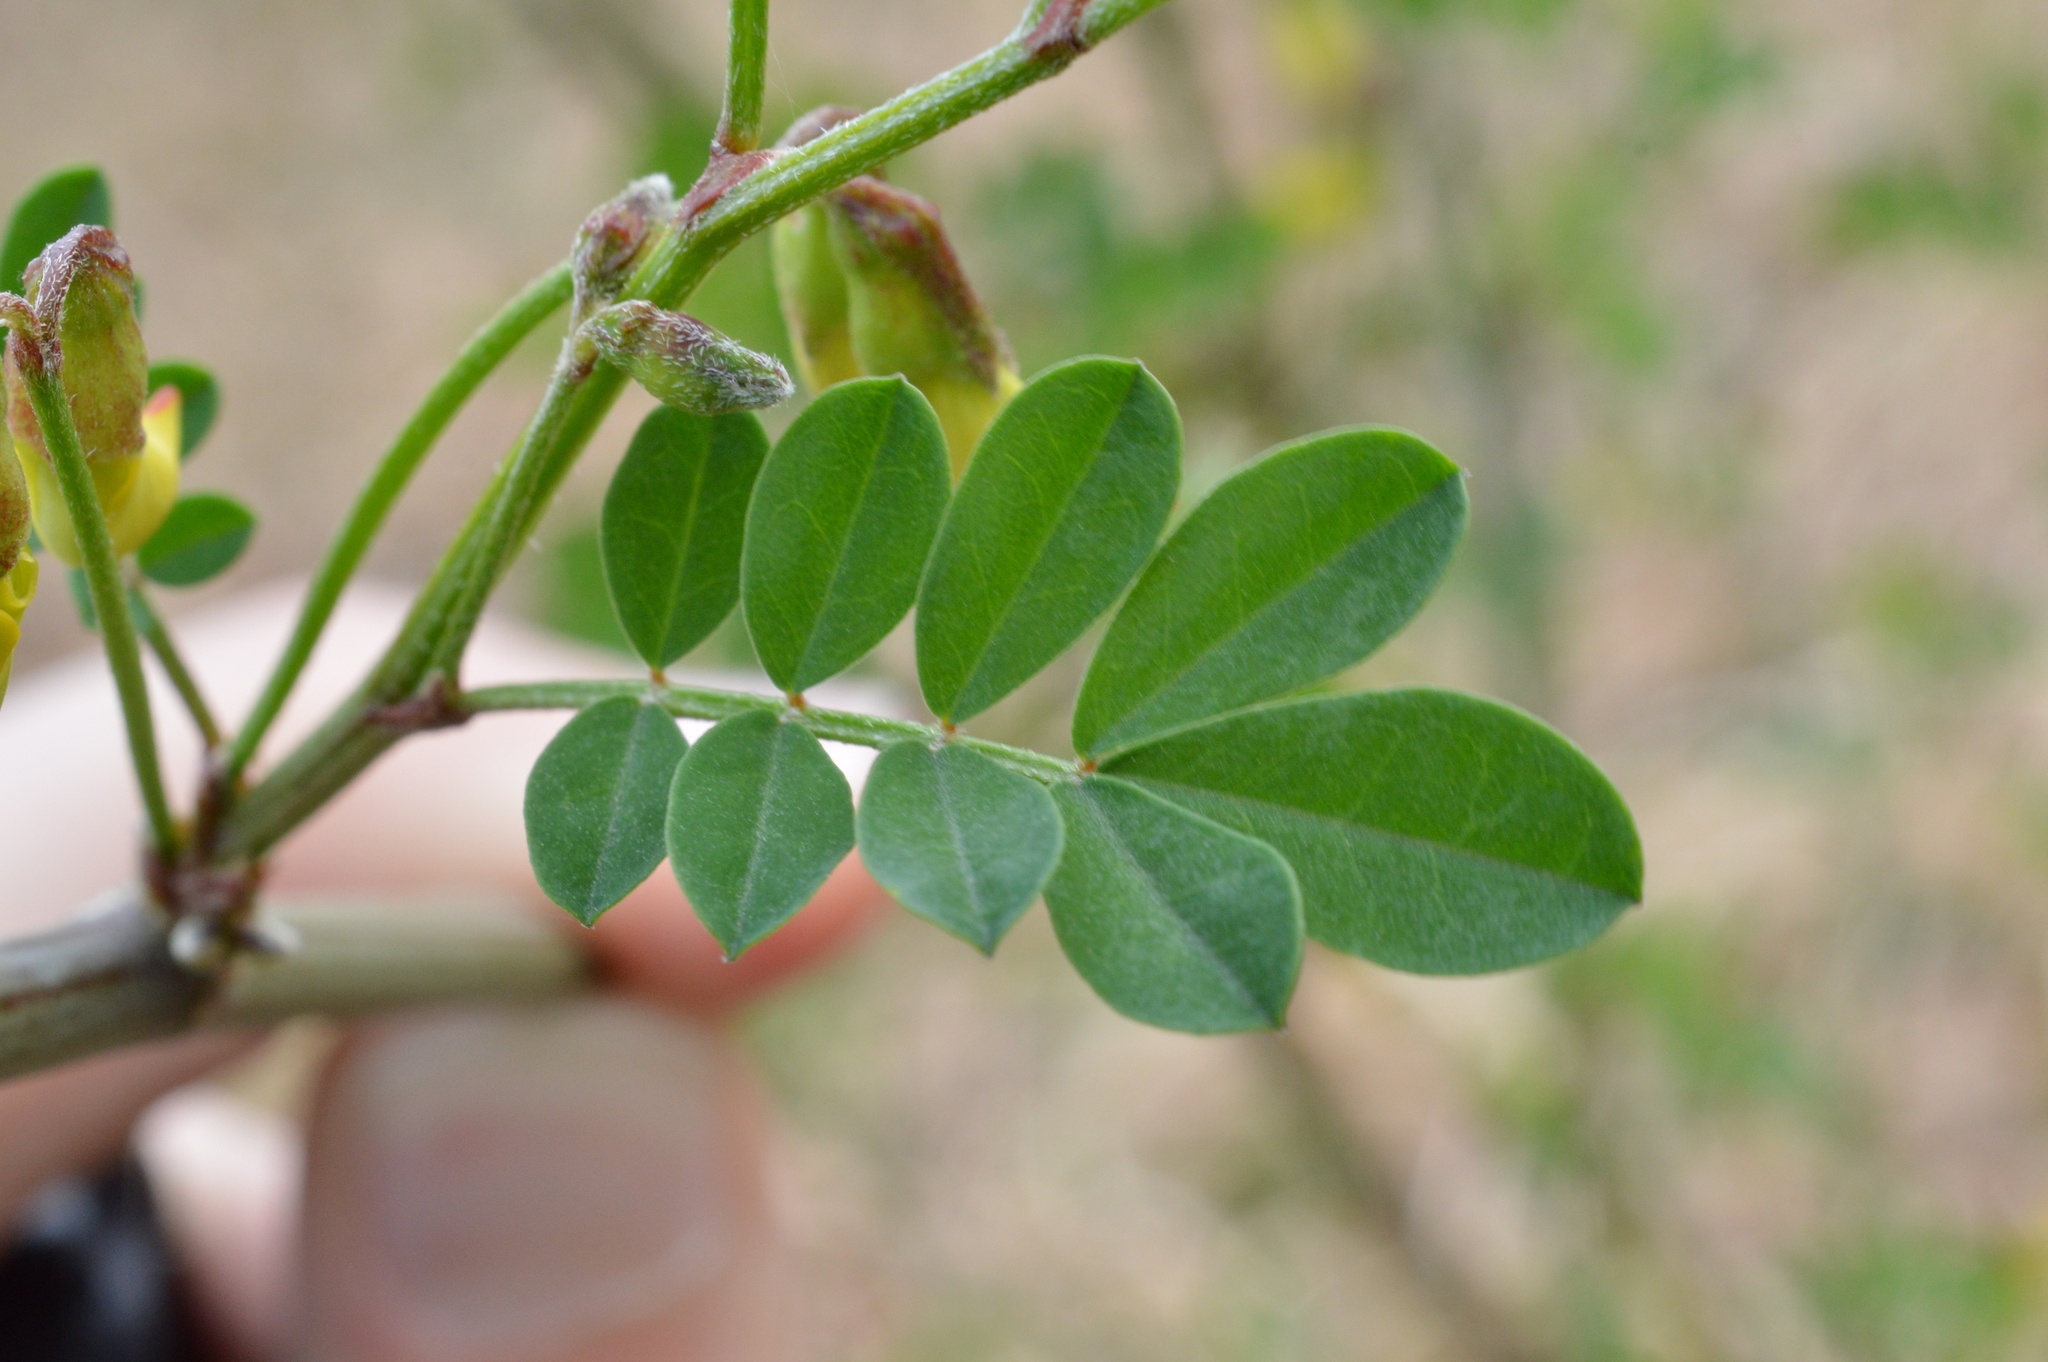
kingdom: Plantae
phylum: Tracheophyta
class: Magnoliopsida
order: Fabales
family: Fabaceae
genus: Hippocrepis
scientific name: Hippocrepis emerus
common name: Scorpion senna
